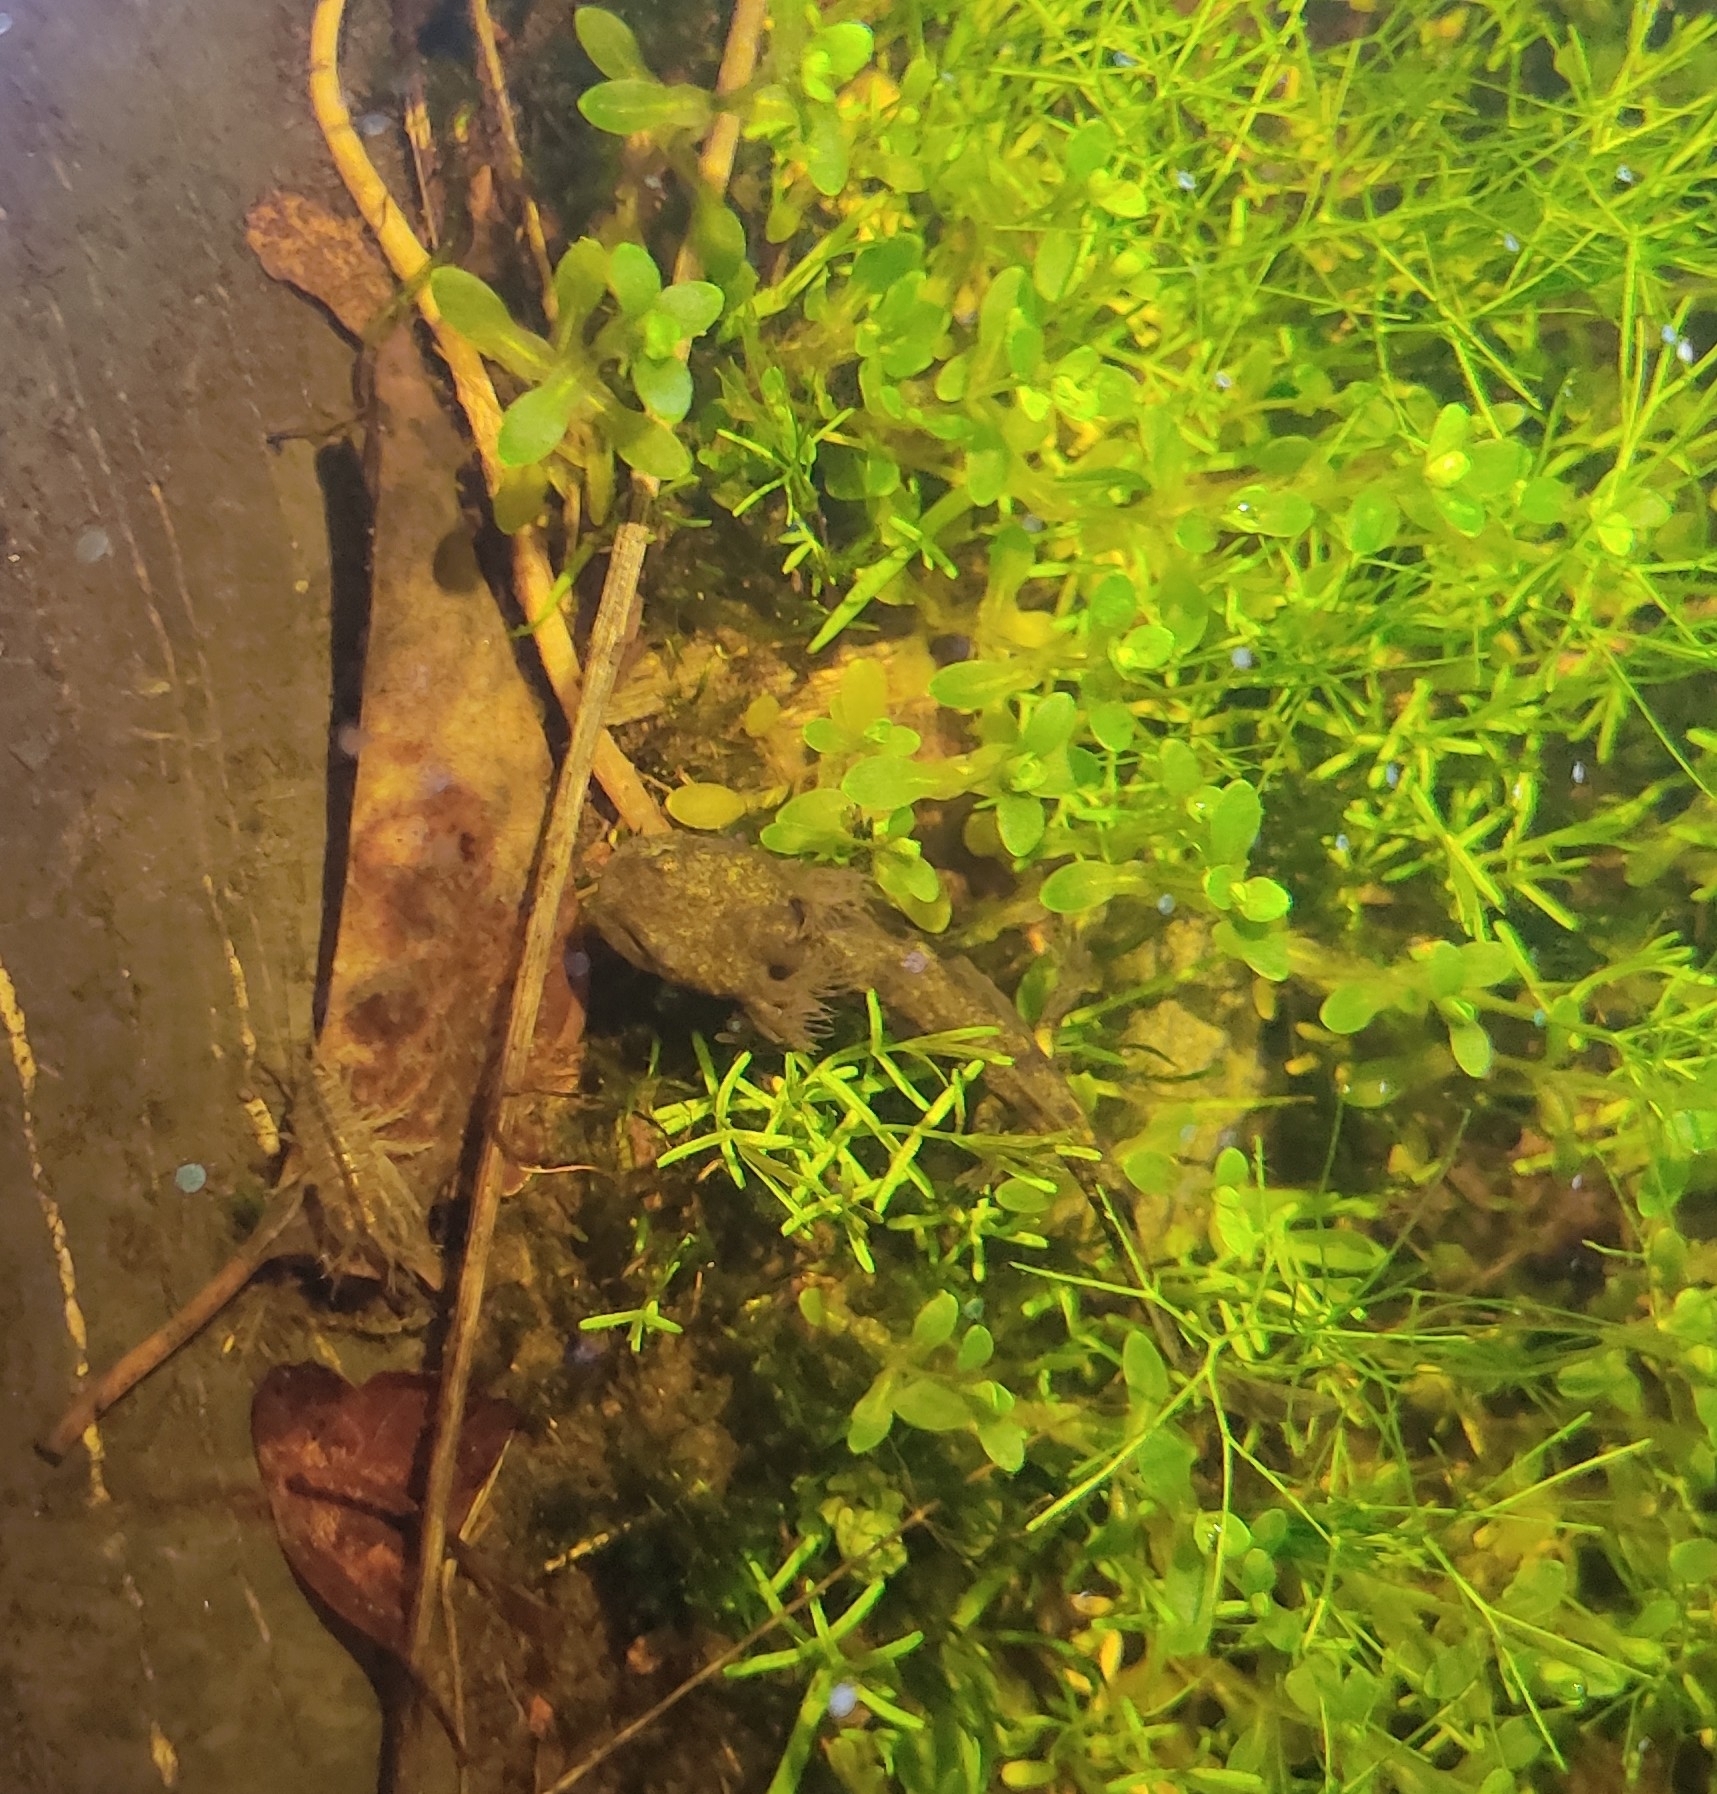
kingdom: Animalia
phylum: Chordata
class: Amphibia
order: Caudata
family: Salamandridae
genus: Salamandra
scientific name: Salamandra salamandra
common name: Fire salamander
